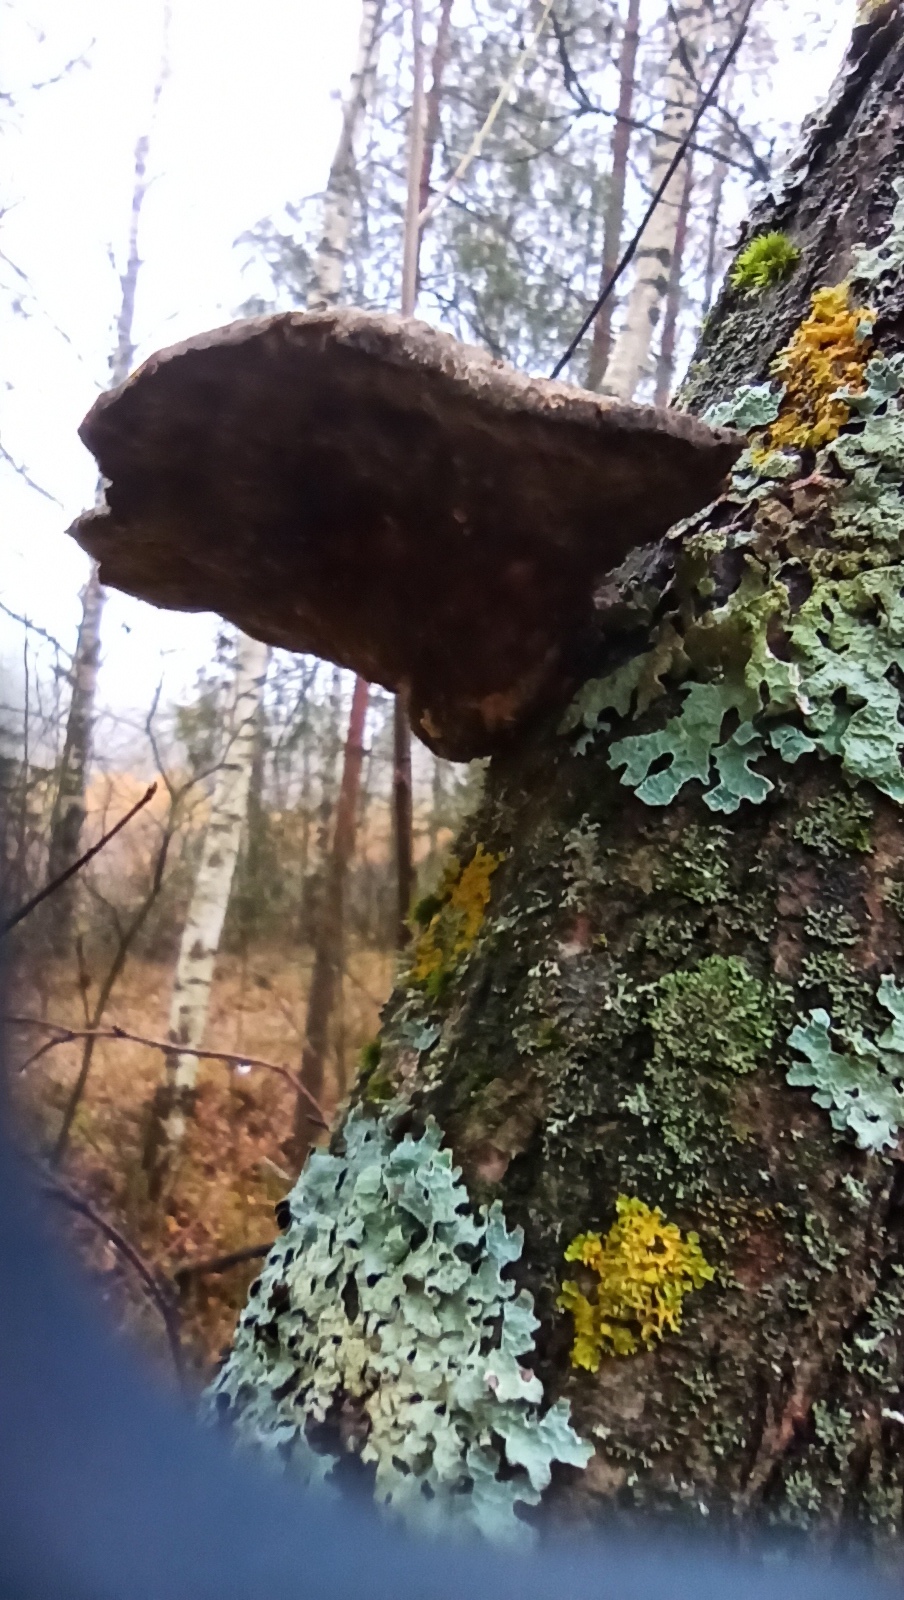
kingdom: Fungi
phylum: Basidiomycota
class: Agaricomycetes
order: Polyporales
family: Fomitopsidaceae
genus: Fomitopsis
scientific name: Fomitopsis betulina
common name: Birch polypore
